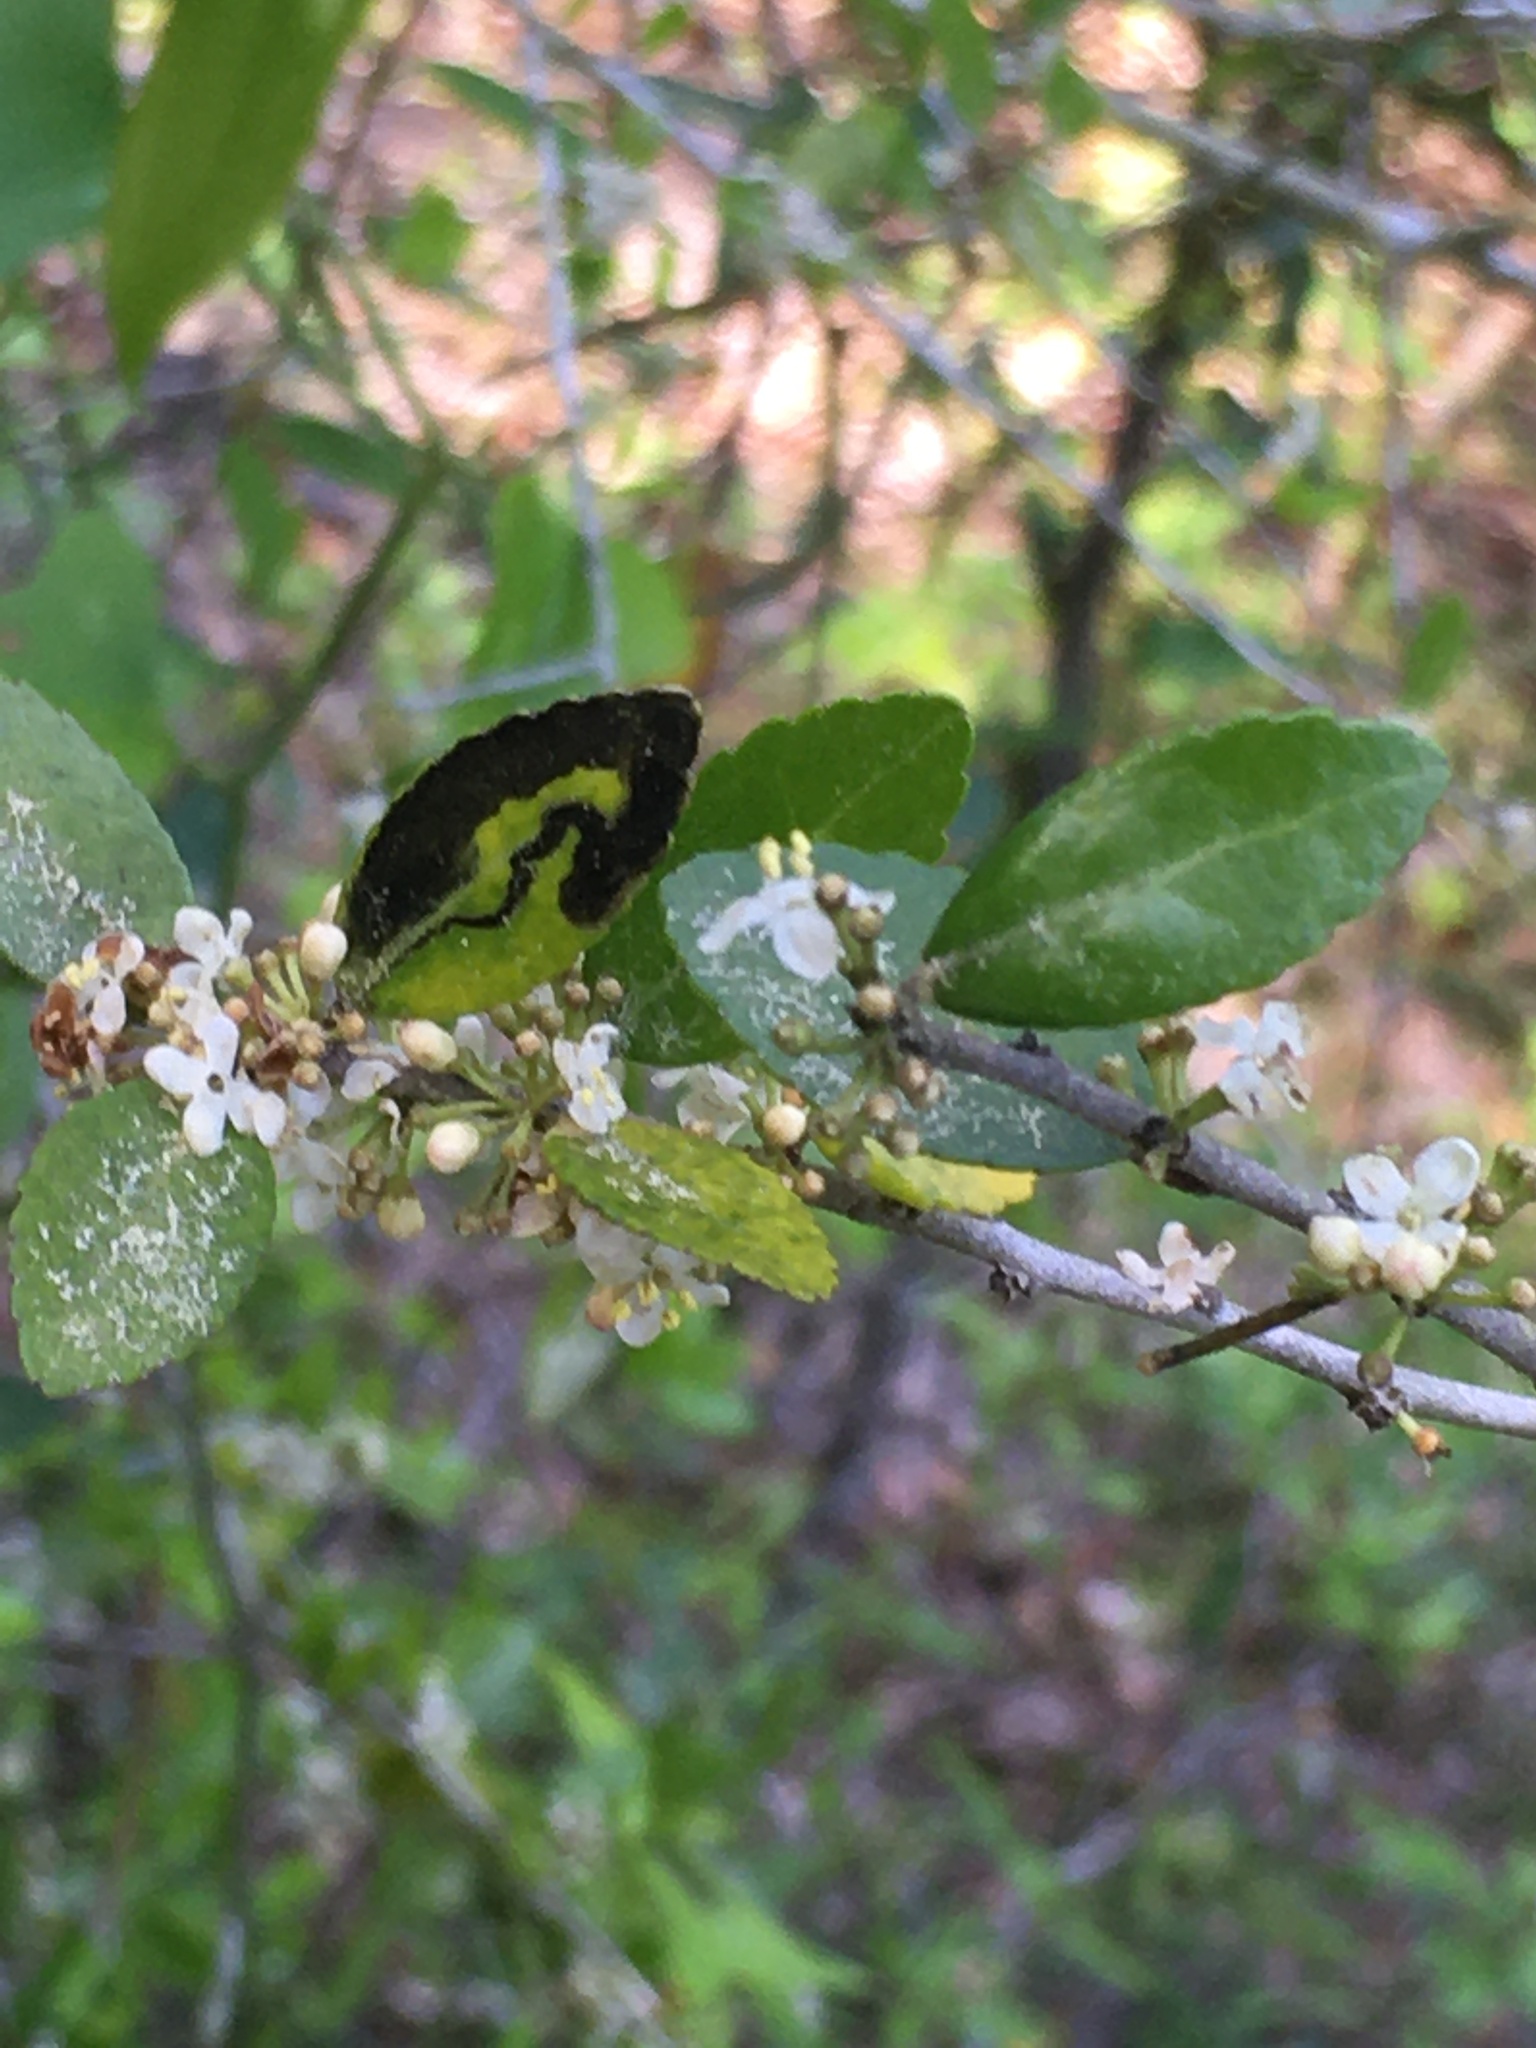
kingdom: Animalia
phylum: Arthropoda
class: Insecta
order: Diptera
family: Agromyzidae
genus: Phytomyza
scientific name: Phytomyza vomitoriae
